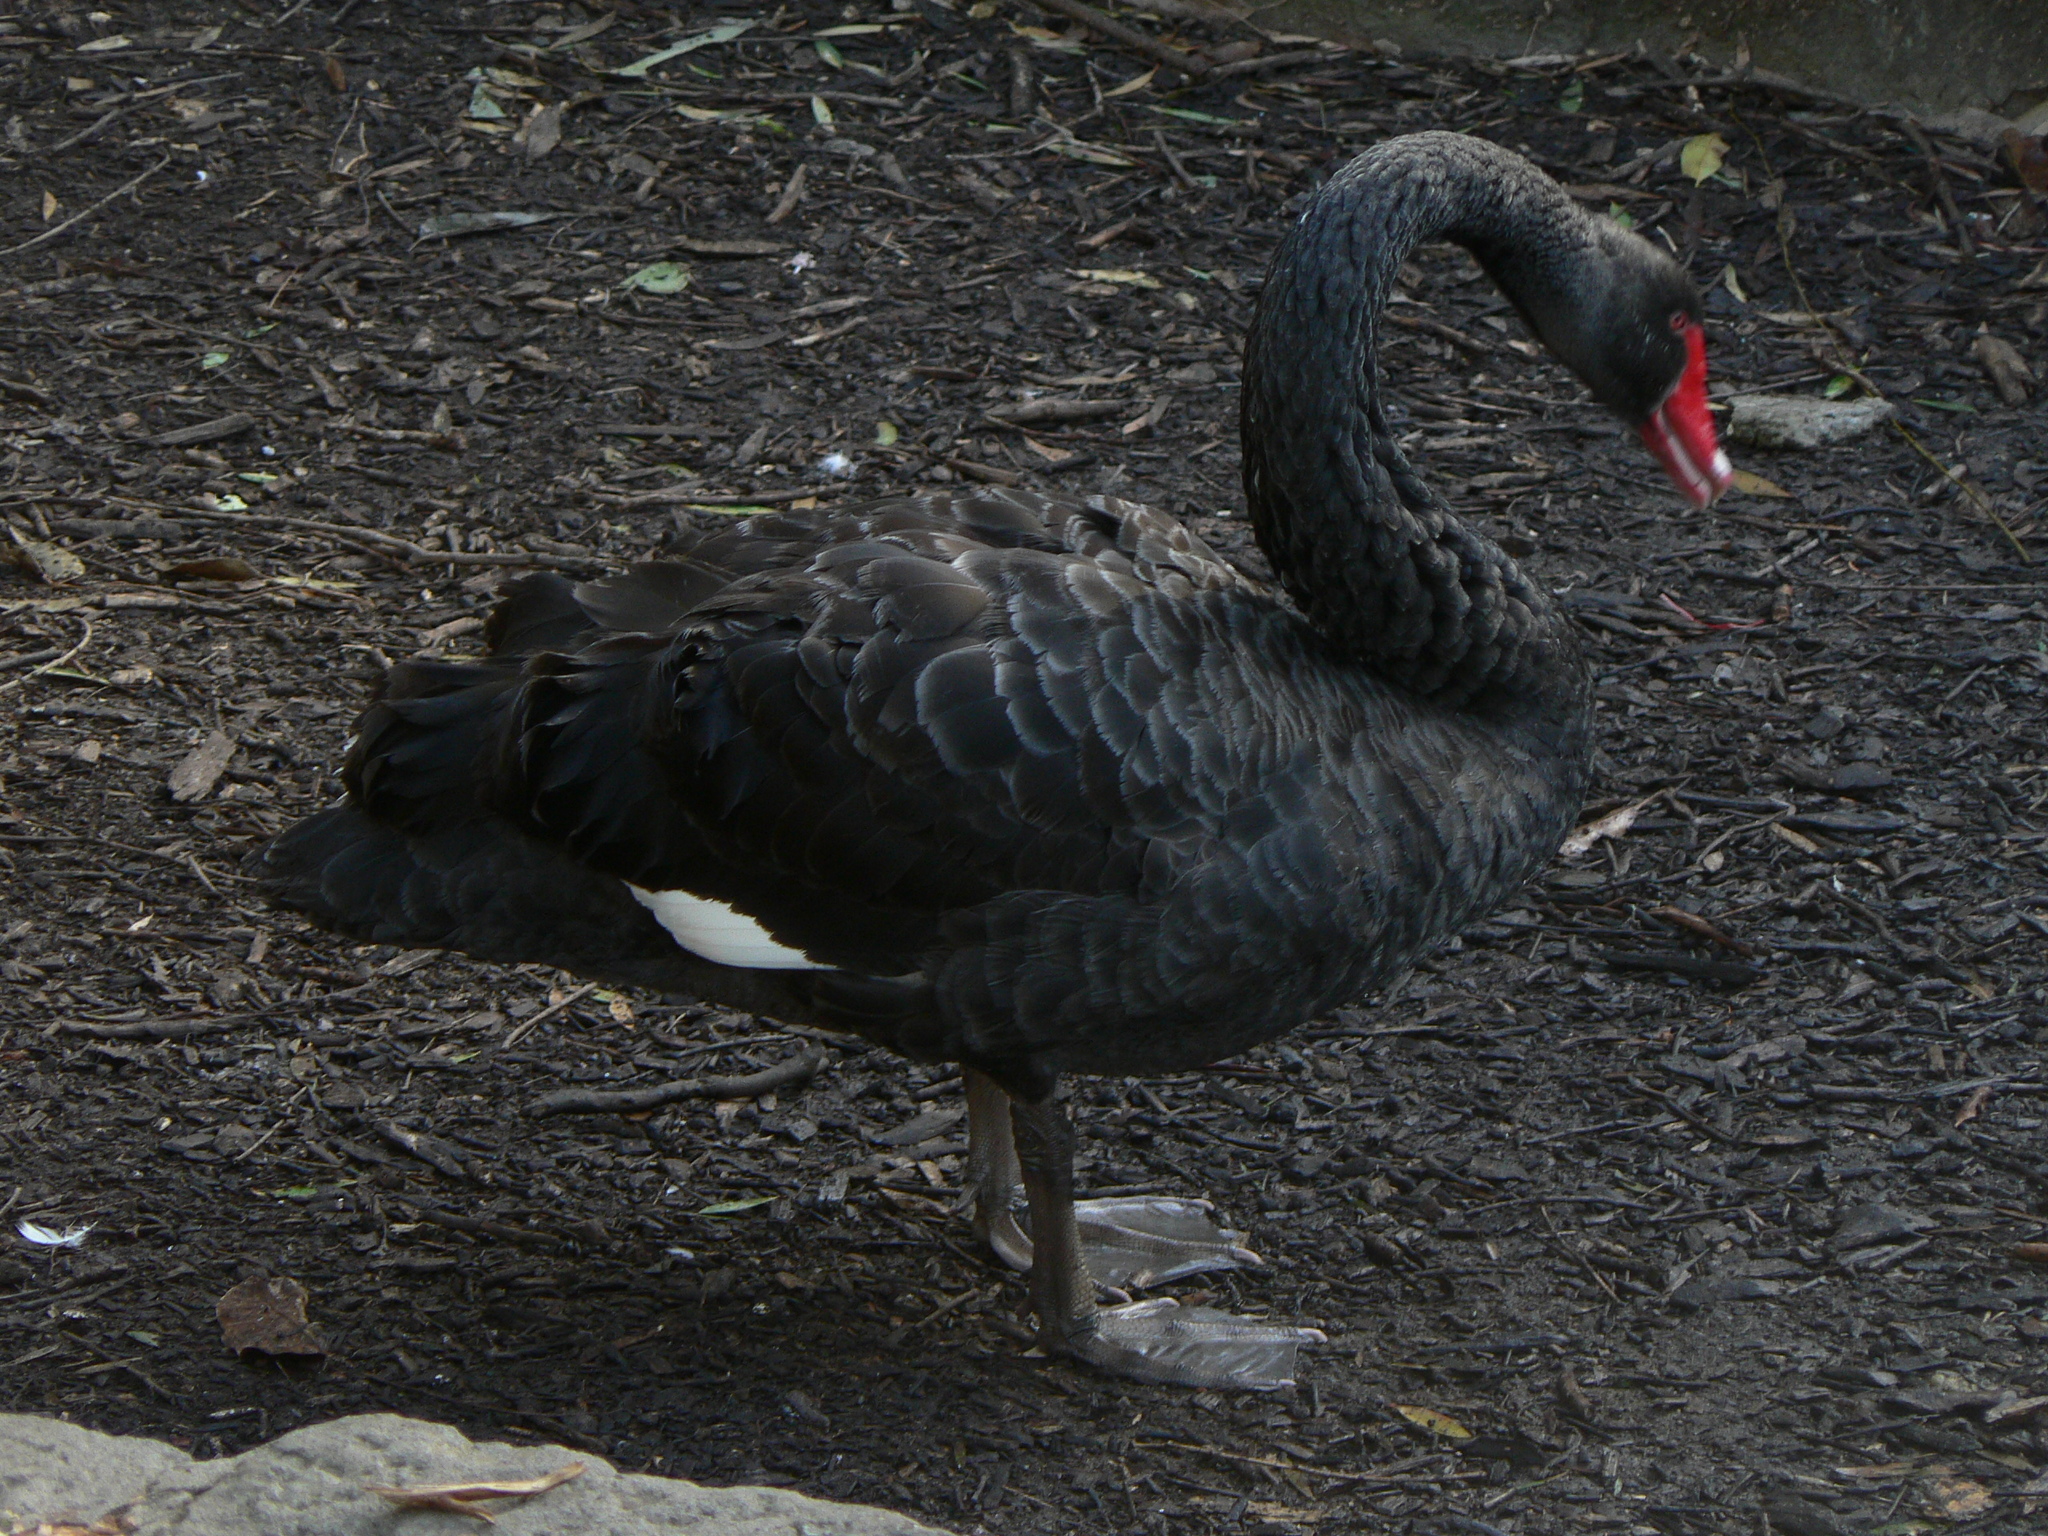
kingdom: Animalia
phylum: Chordata
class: Aves
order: Anseriformes
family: Anatidae
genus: Cygnus
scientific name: Cygnus atratus
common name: Black swan
